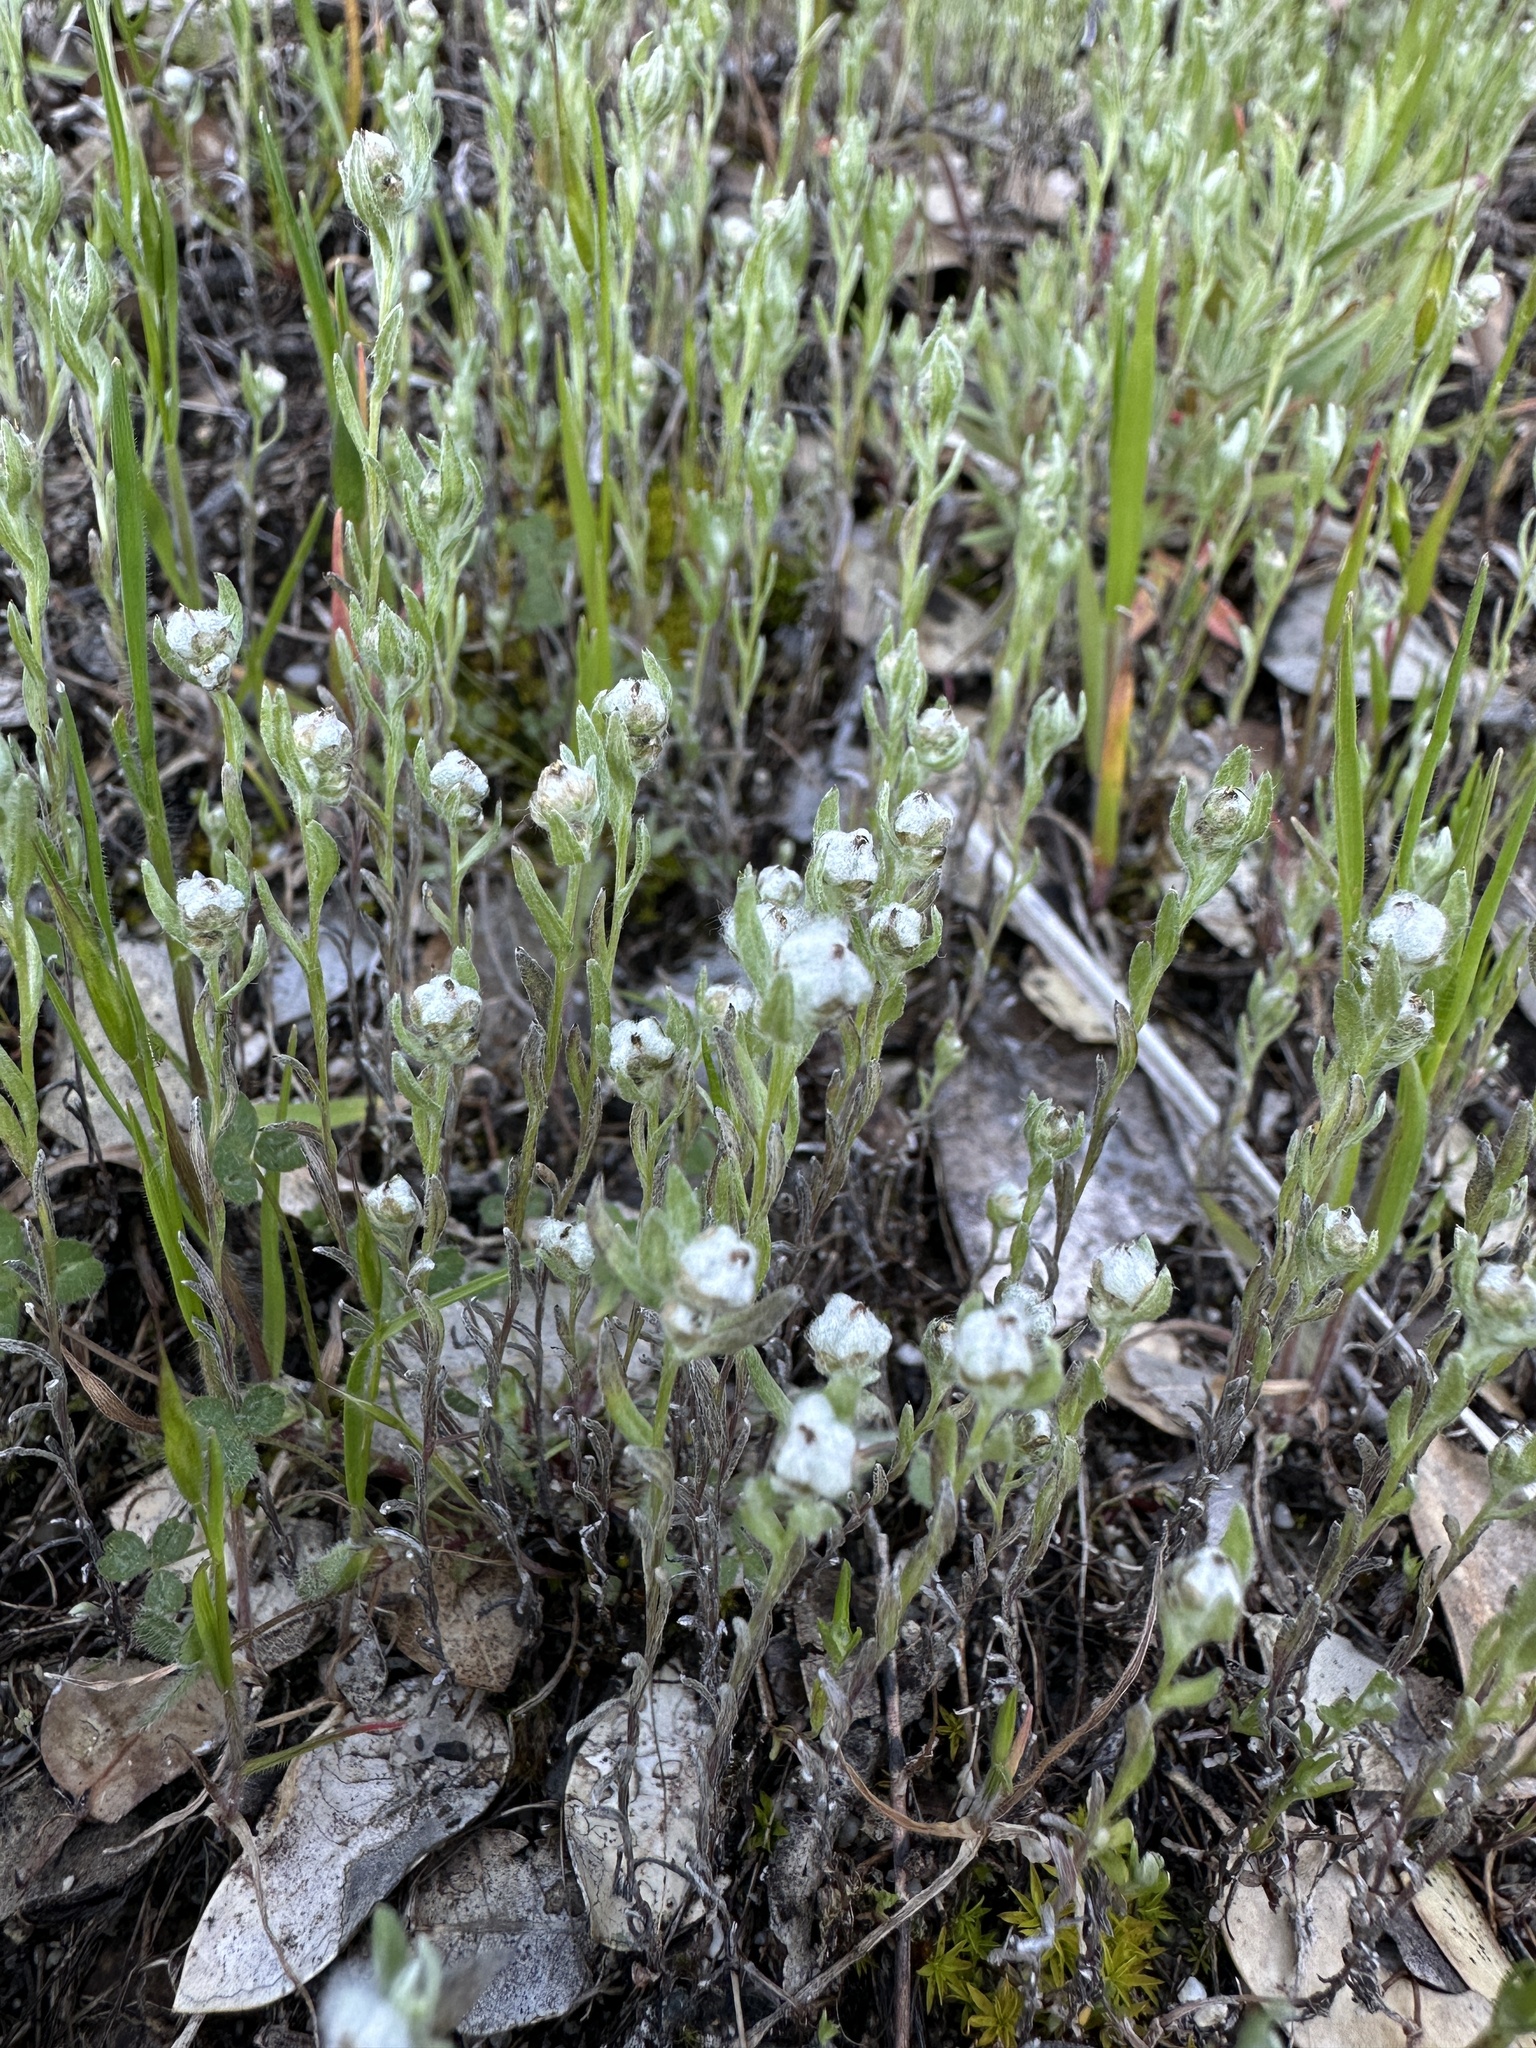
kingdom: Plantae
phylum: Tracheophyta
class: Magnoliopsida
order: Asterales
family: Asteraceae
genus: Bombycilaena
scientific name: Bombycilaena californica
